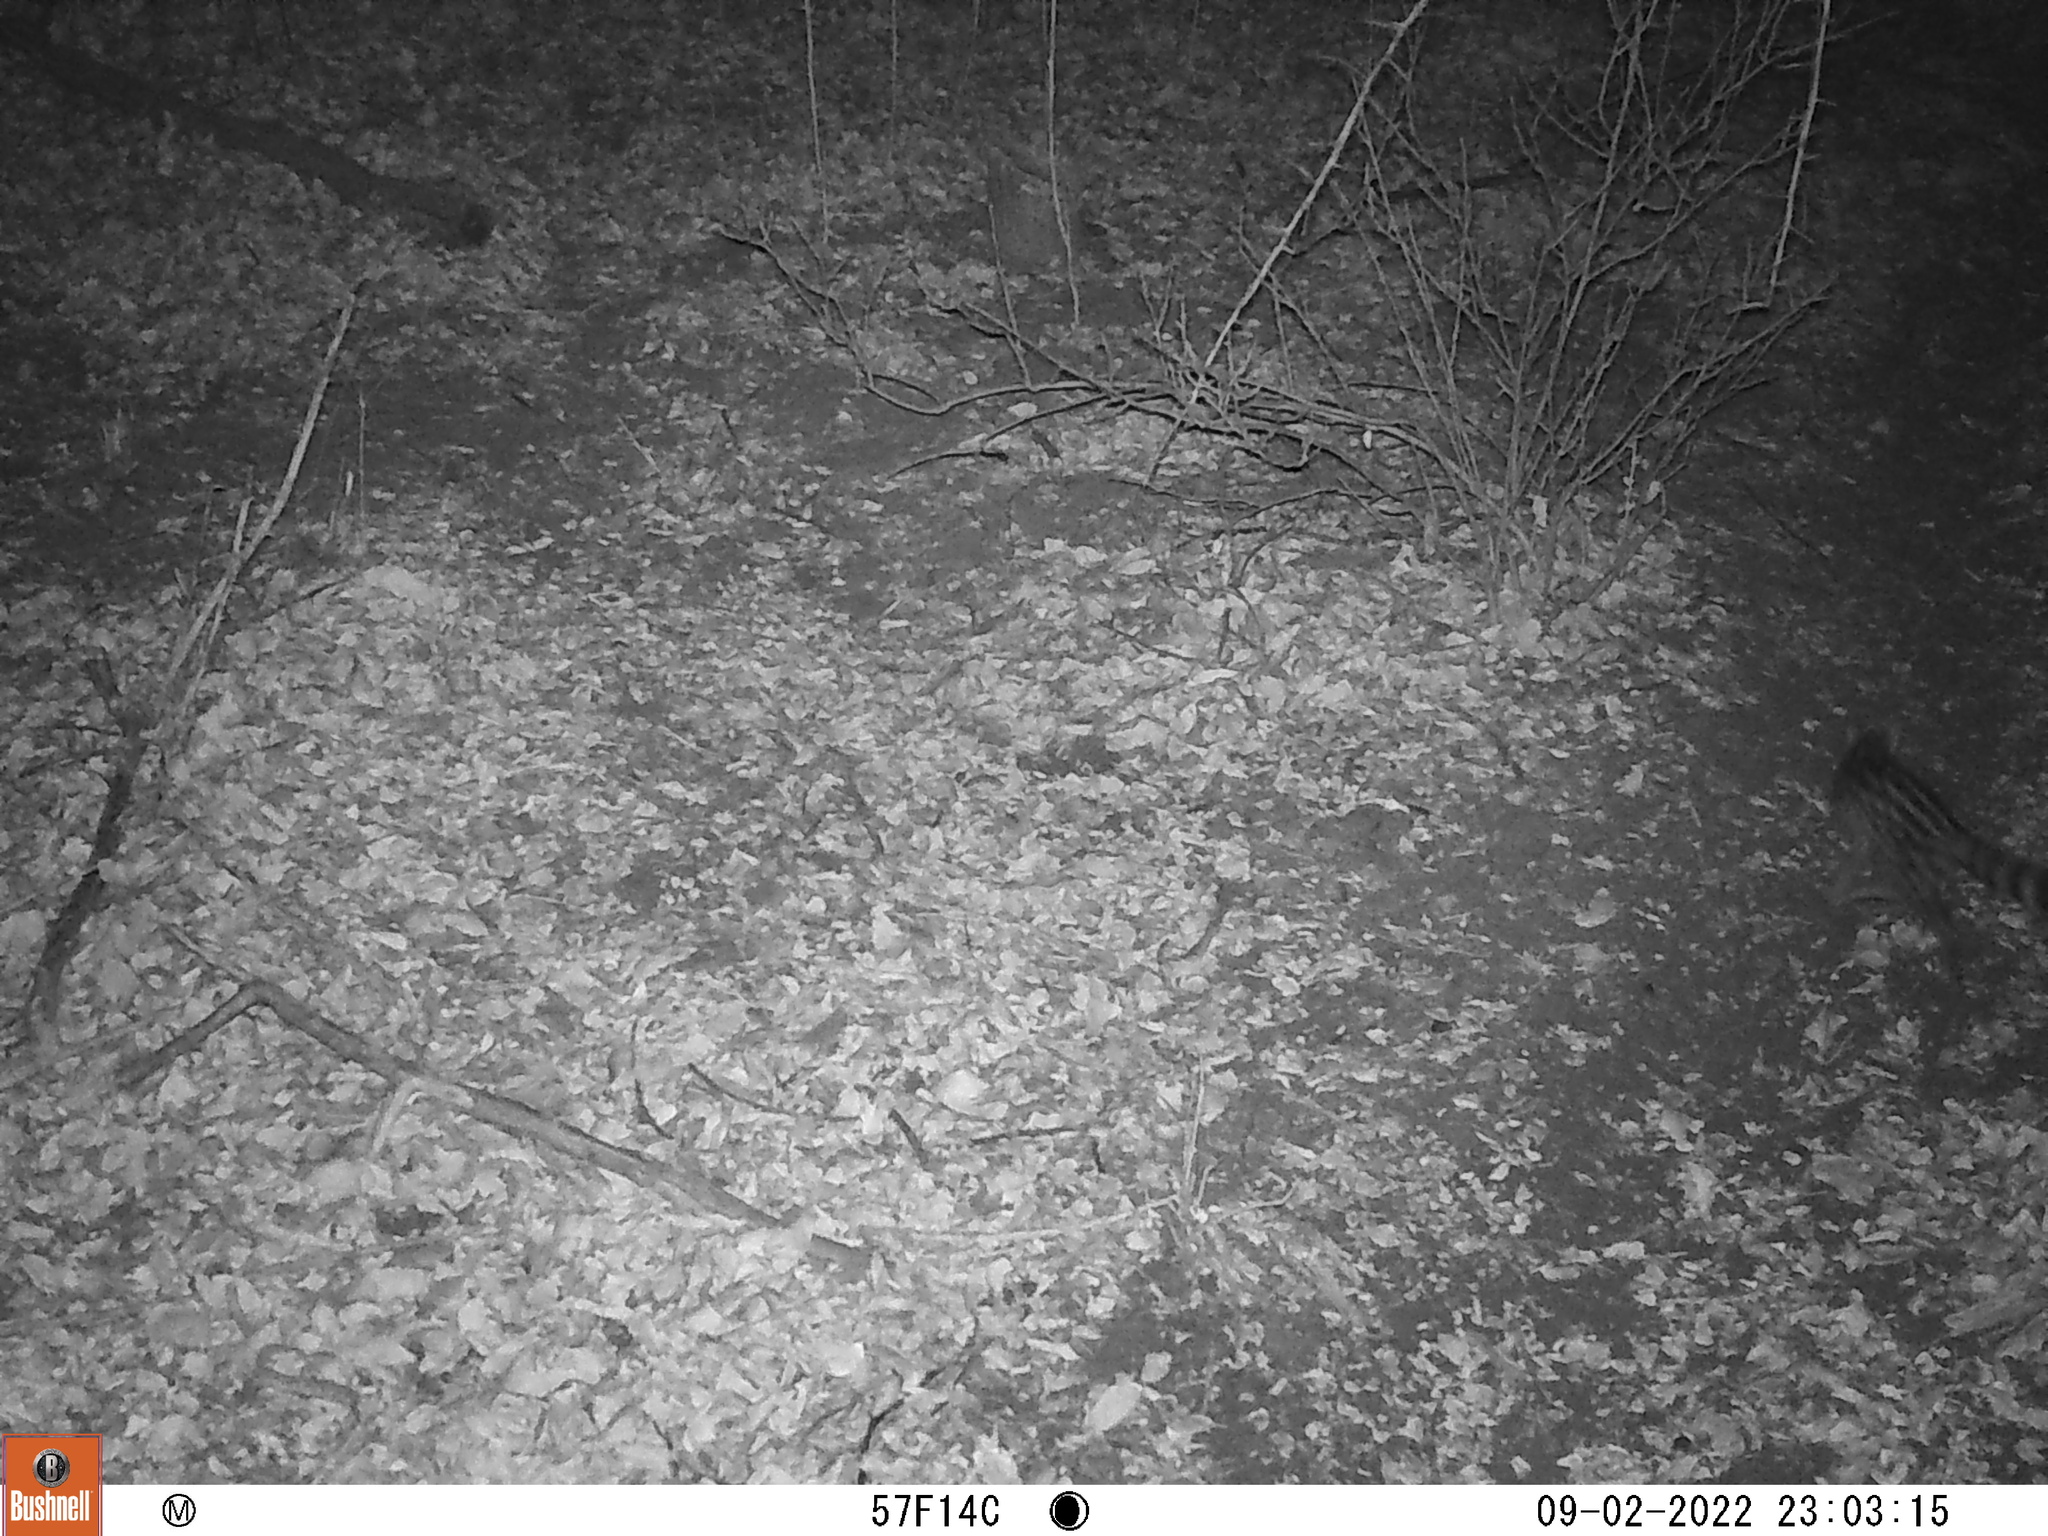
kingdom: Animalia
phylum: Chordata
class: Mammalia
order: Carnivora
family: Viverridae
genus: Genetta
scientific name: Genetta maculata
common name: Rusty-spotted genet
